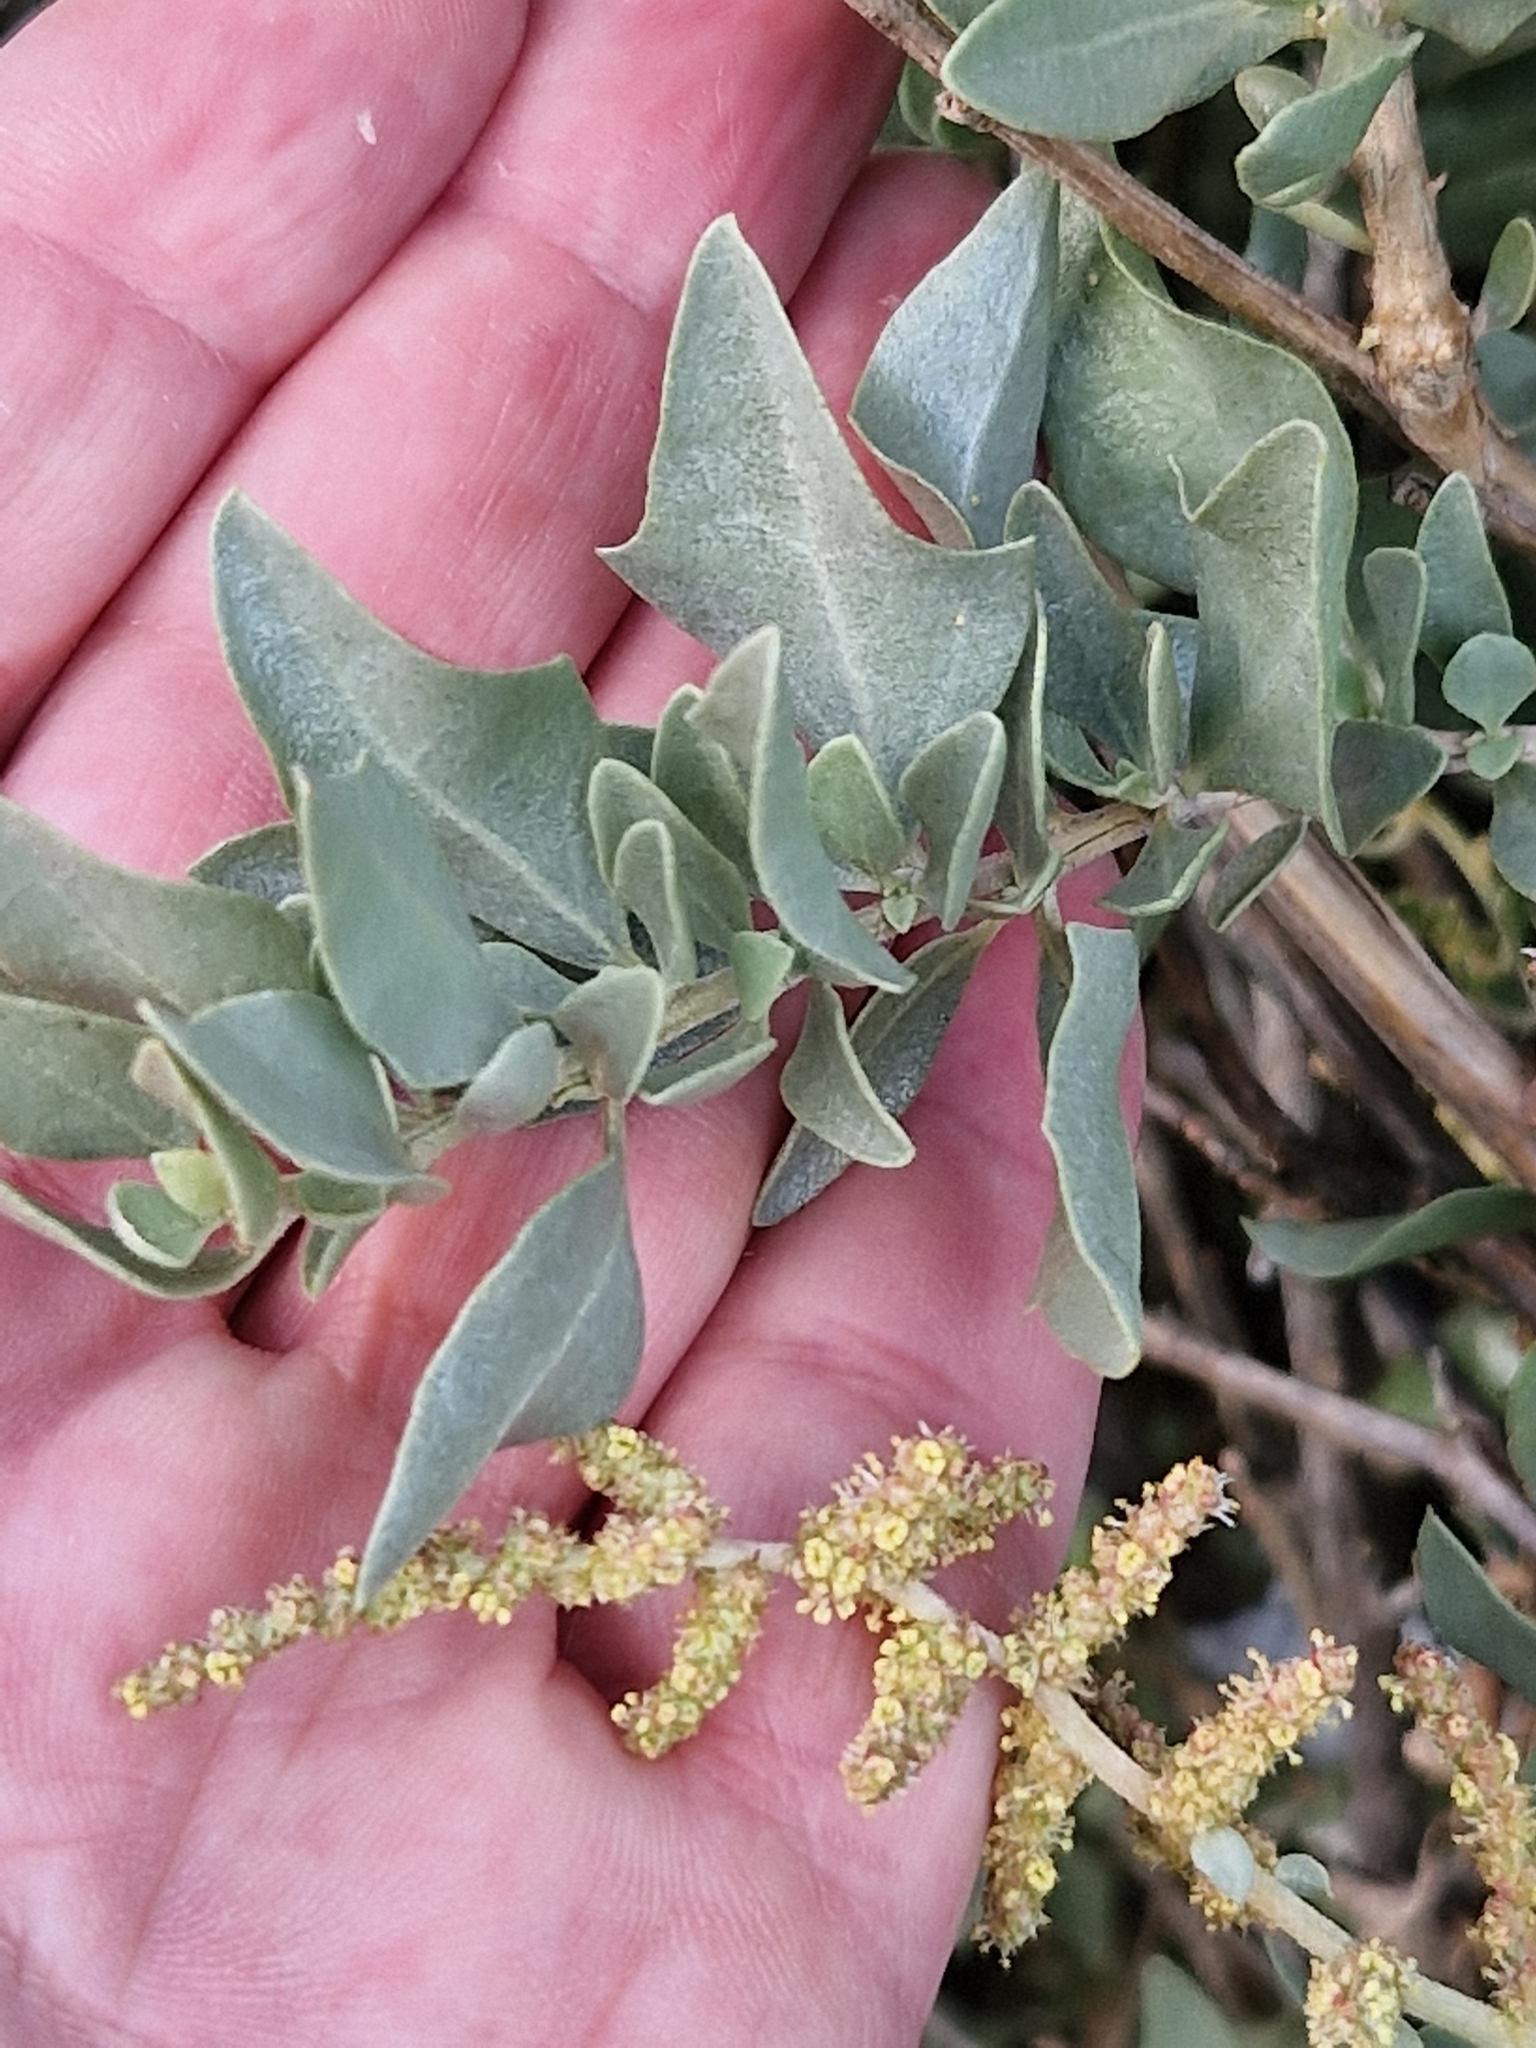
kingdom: Plantae
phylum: Tracheophyta
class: Magnoliopsida
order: Caryophyllales
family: Amaranthaceae
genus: Atriplex
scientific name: Atriplex halimus
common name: Shrubby orache
